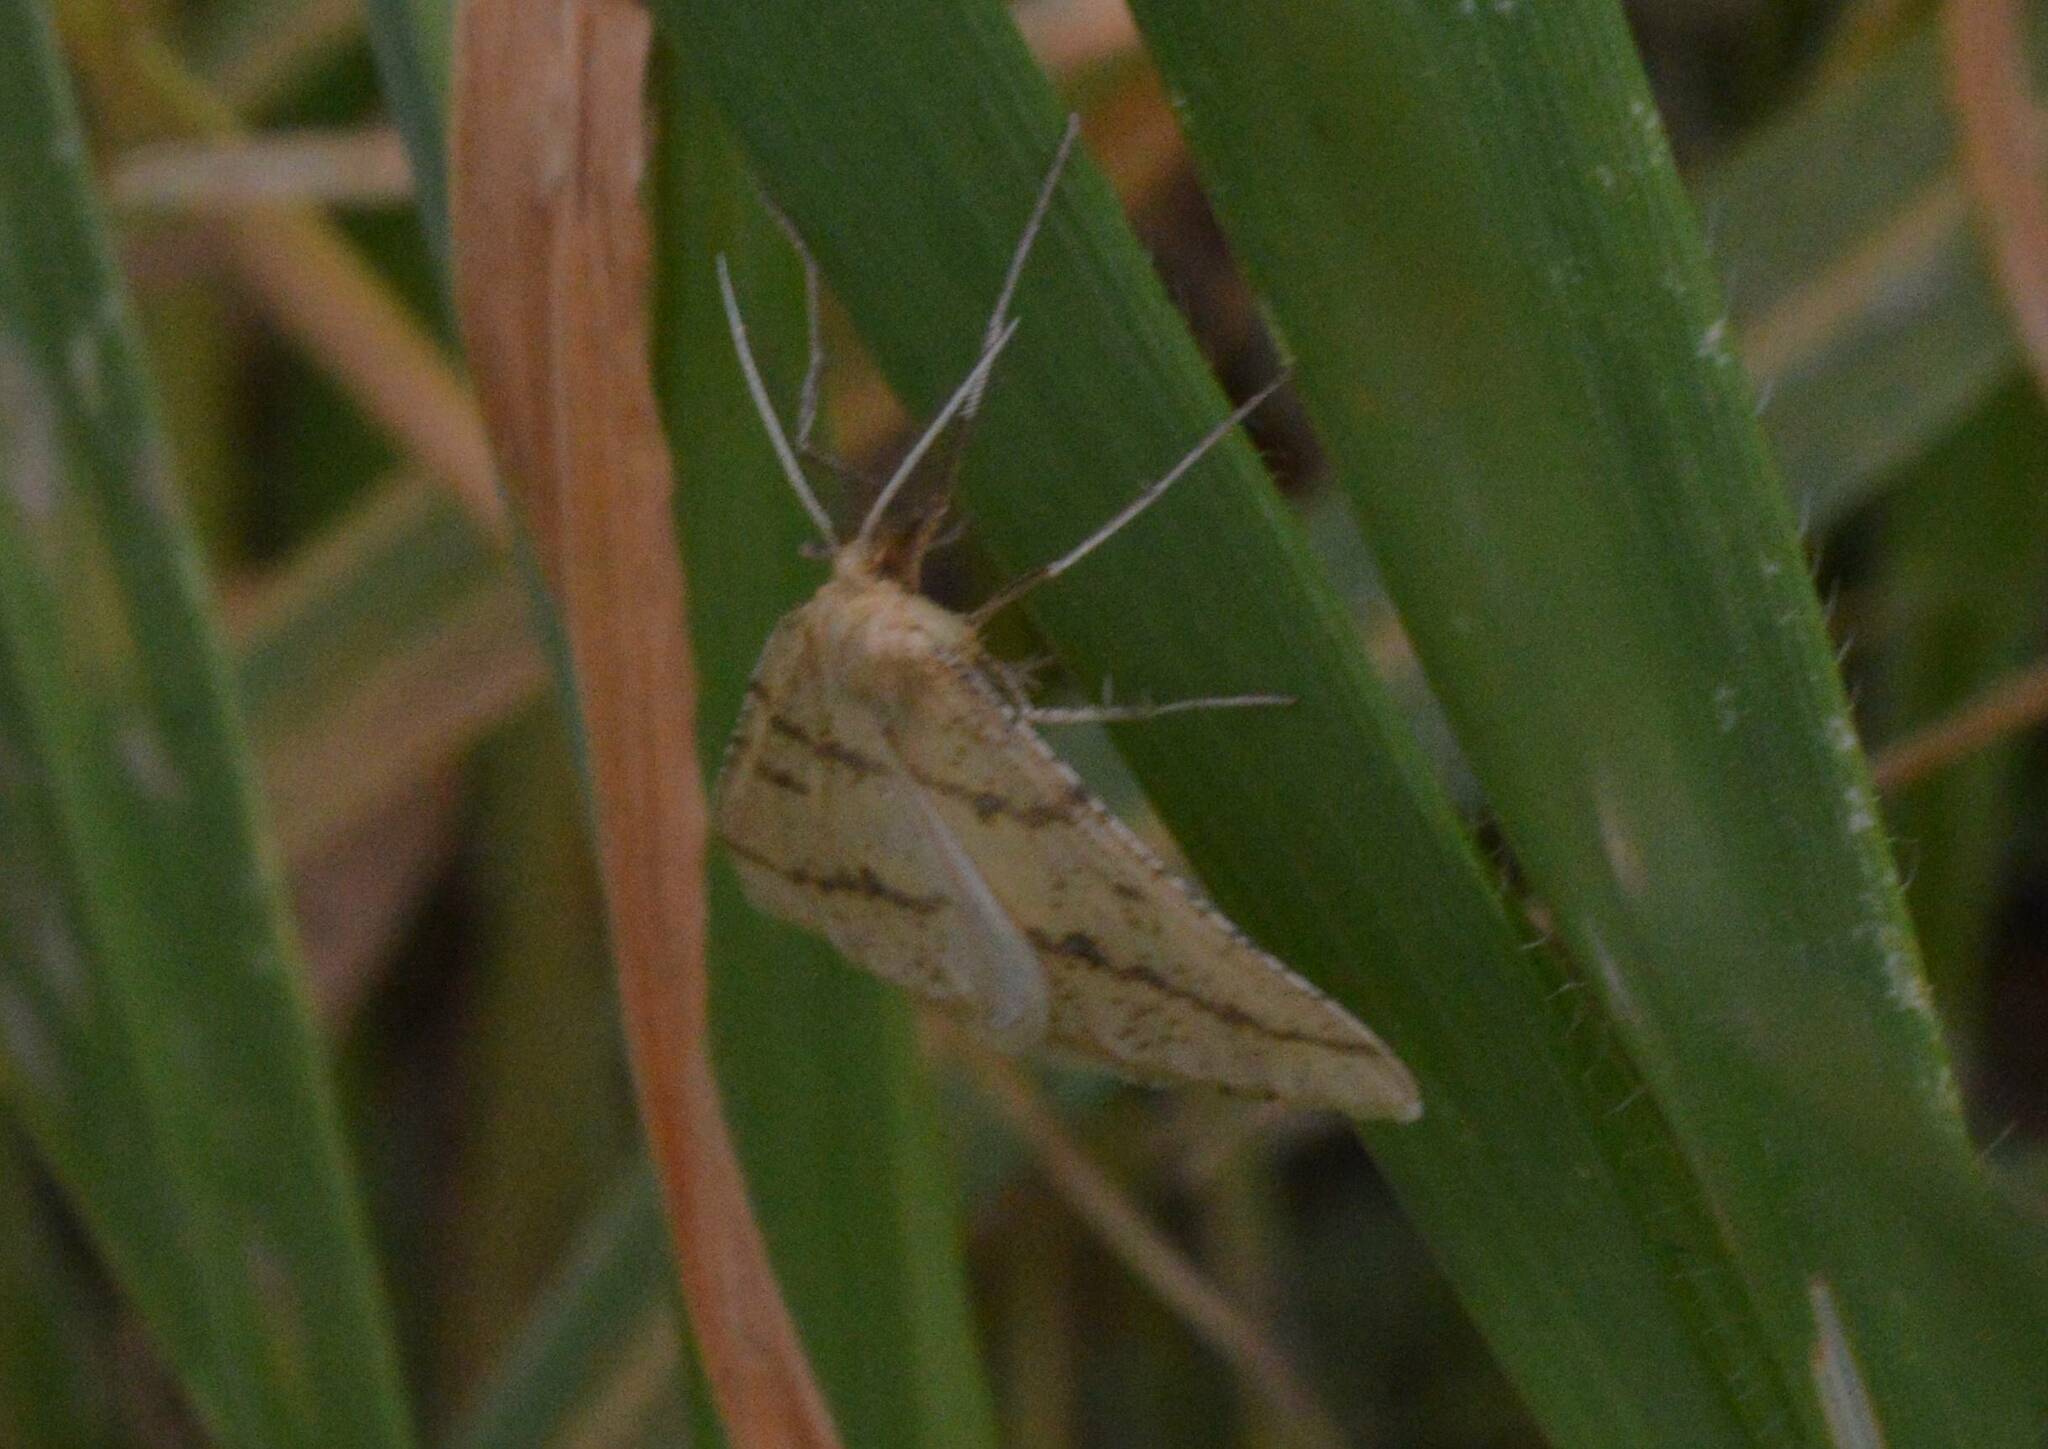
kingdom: Animalia
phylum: Arthropoda
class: Insecta
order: Lepidoptera
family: Geometridae
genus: Aspitates
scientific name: Aspitates ochrearia
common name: Yellow belle
